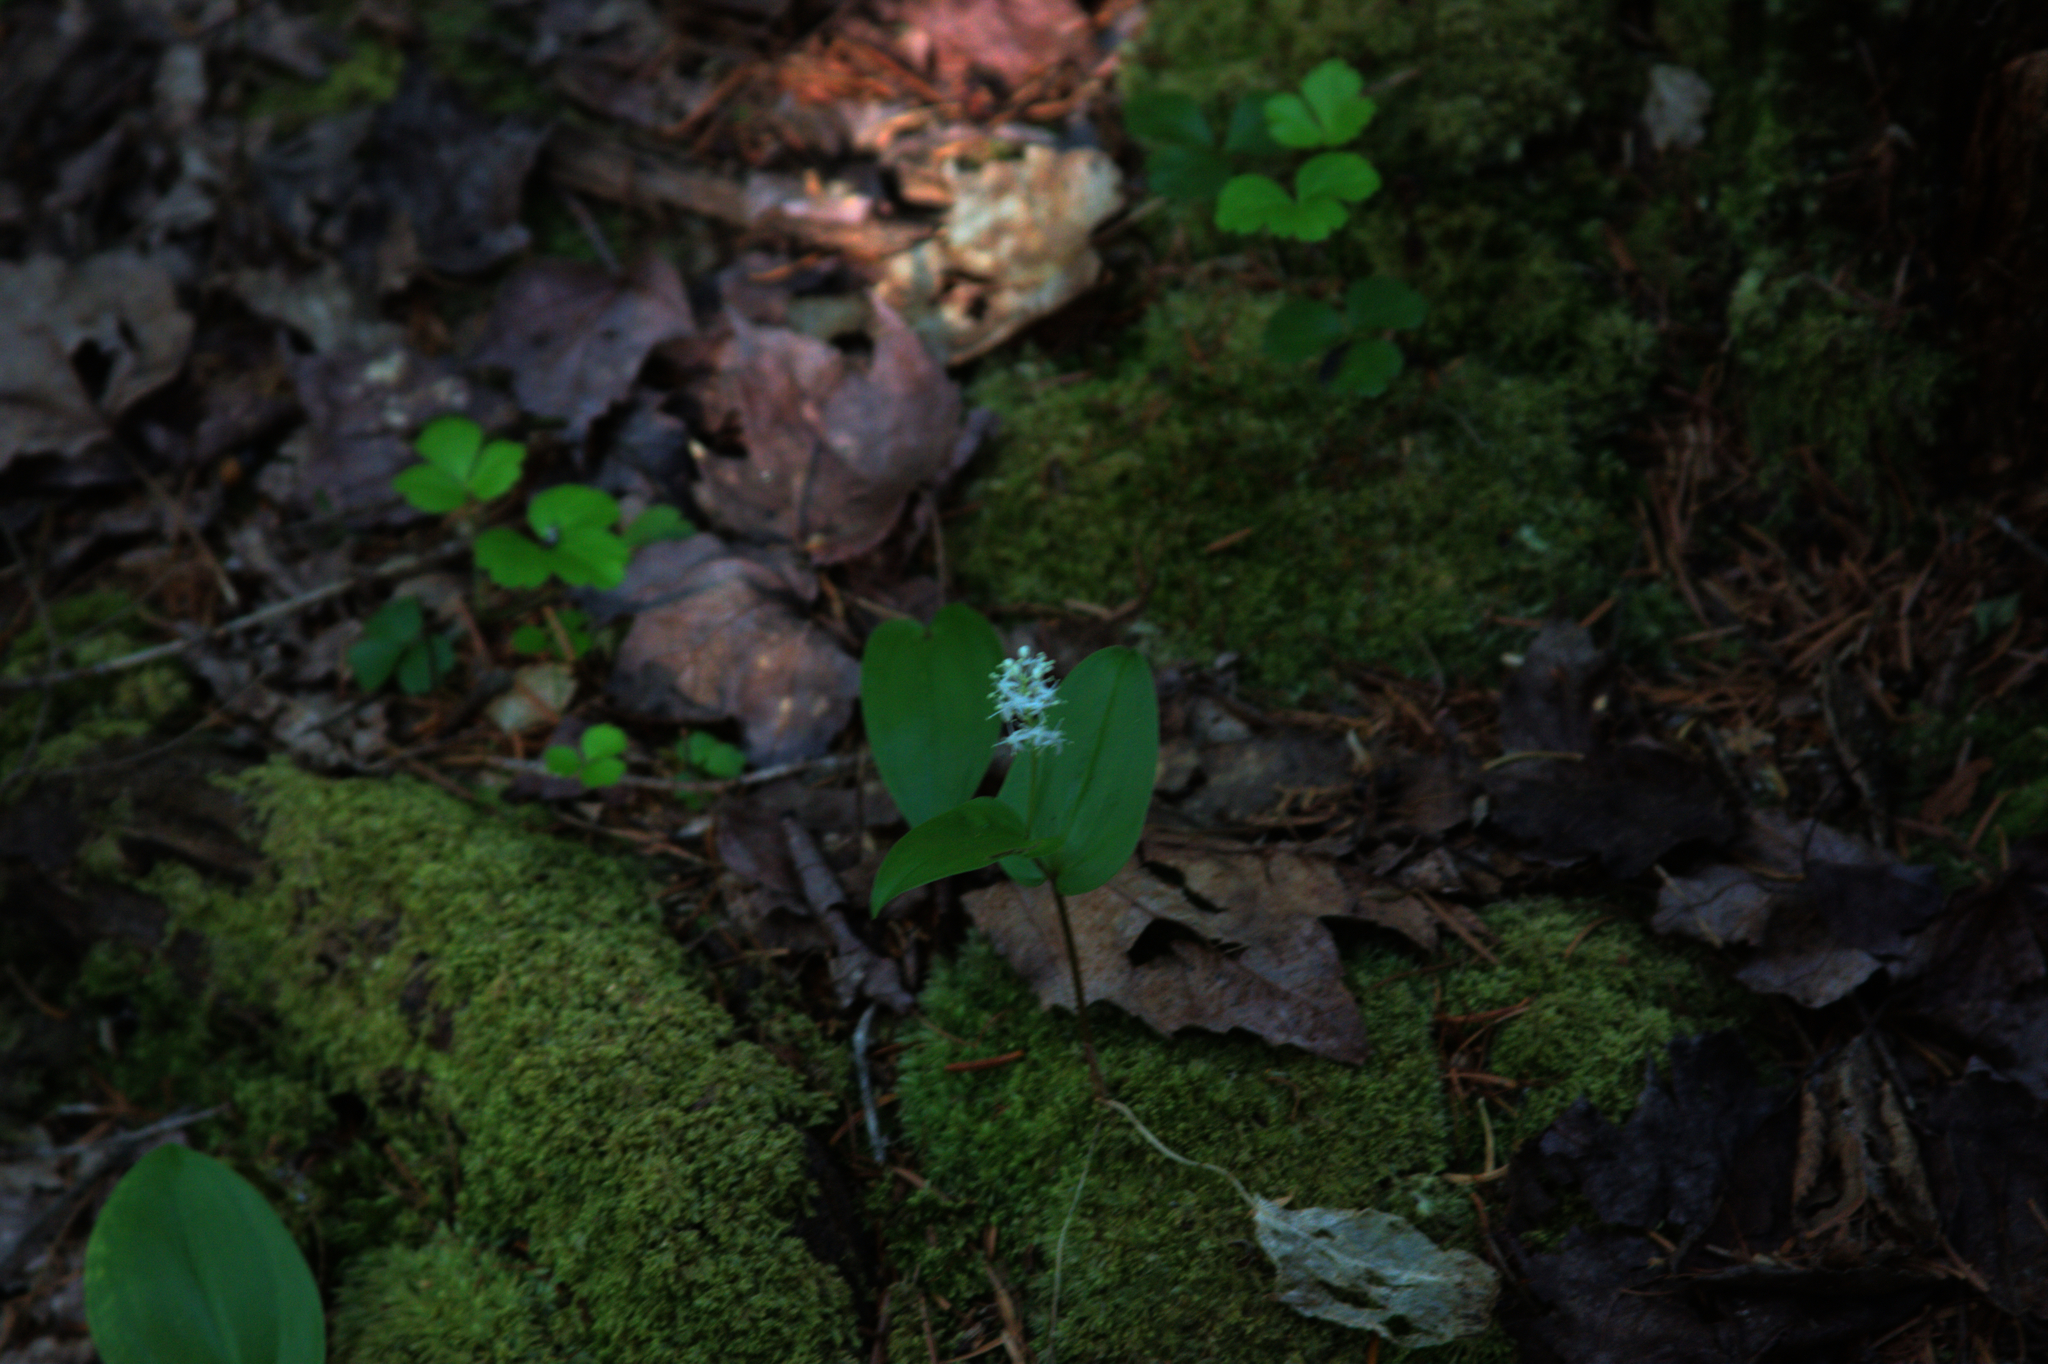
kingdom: Plantae
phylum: Tracheophyta
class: Liliopsida
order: Asparagales
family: Asparagaceae
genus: Maianthemum
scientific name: Maianthemum canadense
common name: False lily-of-the-valley
